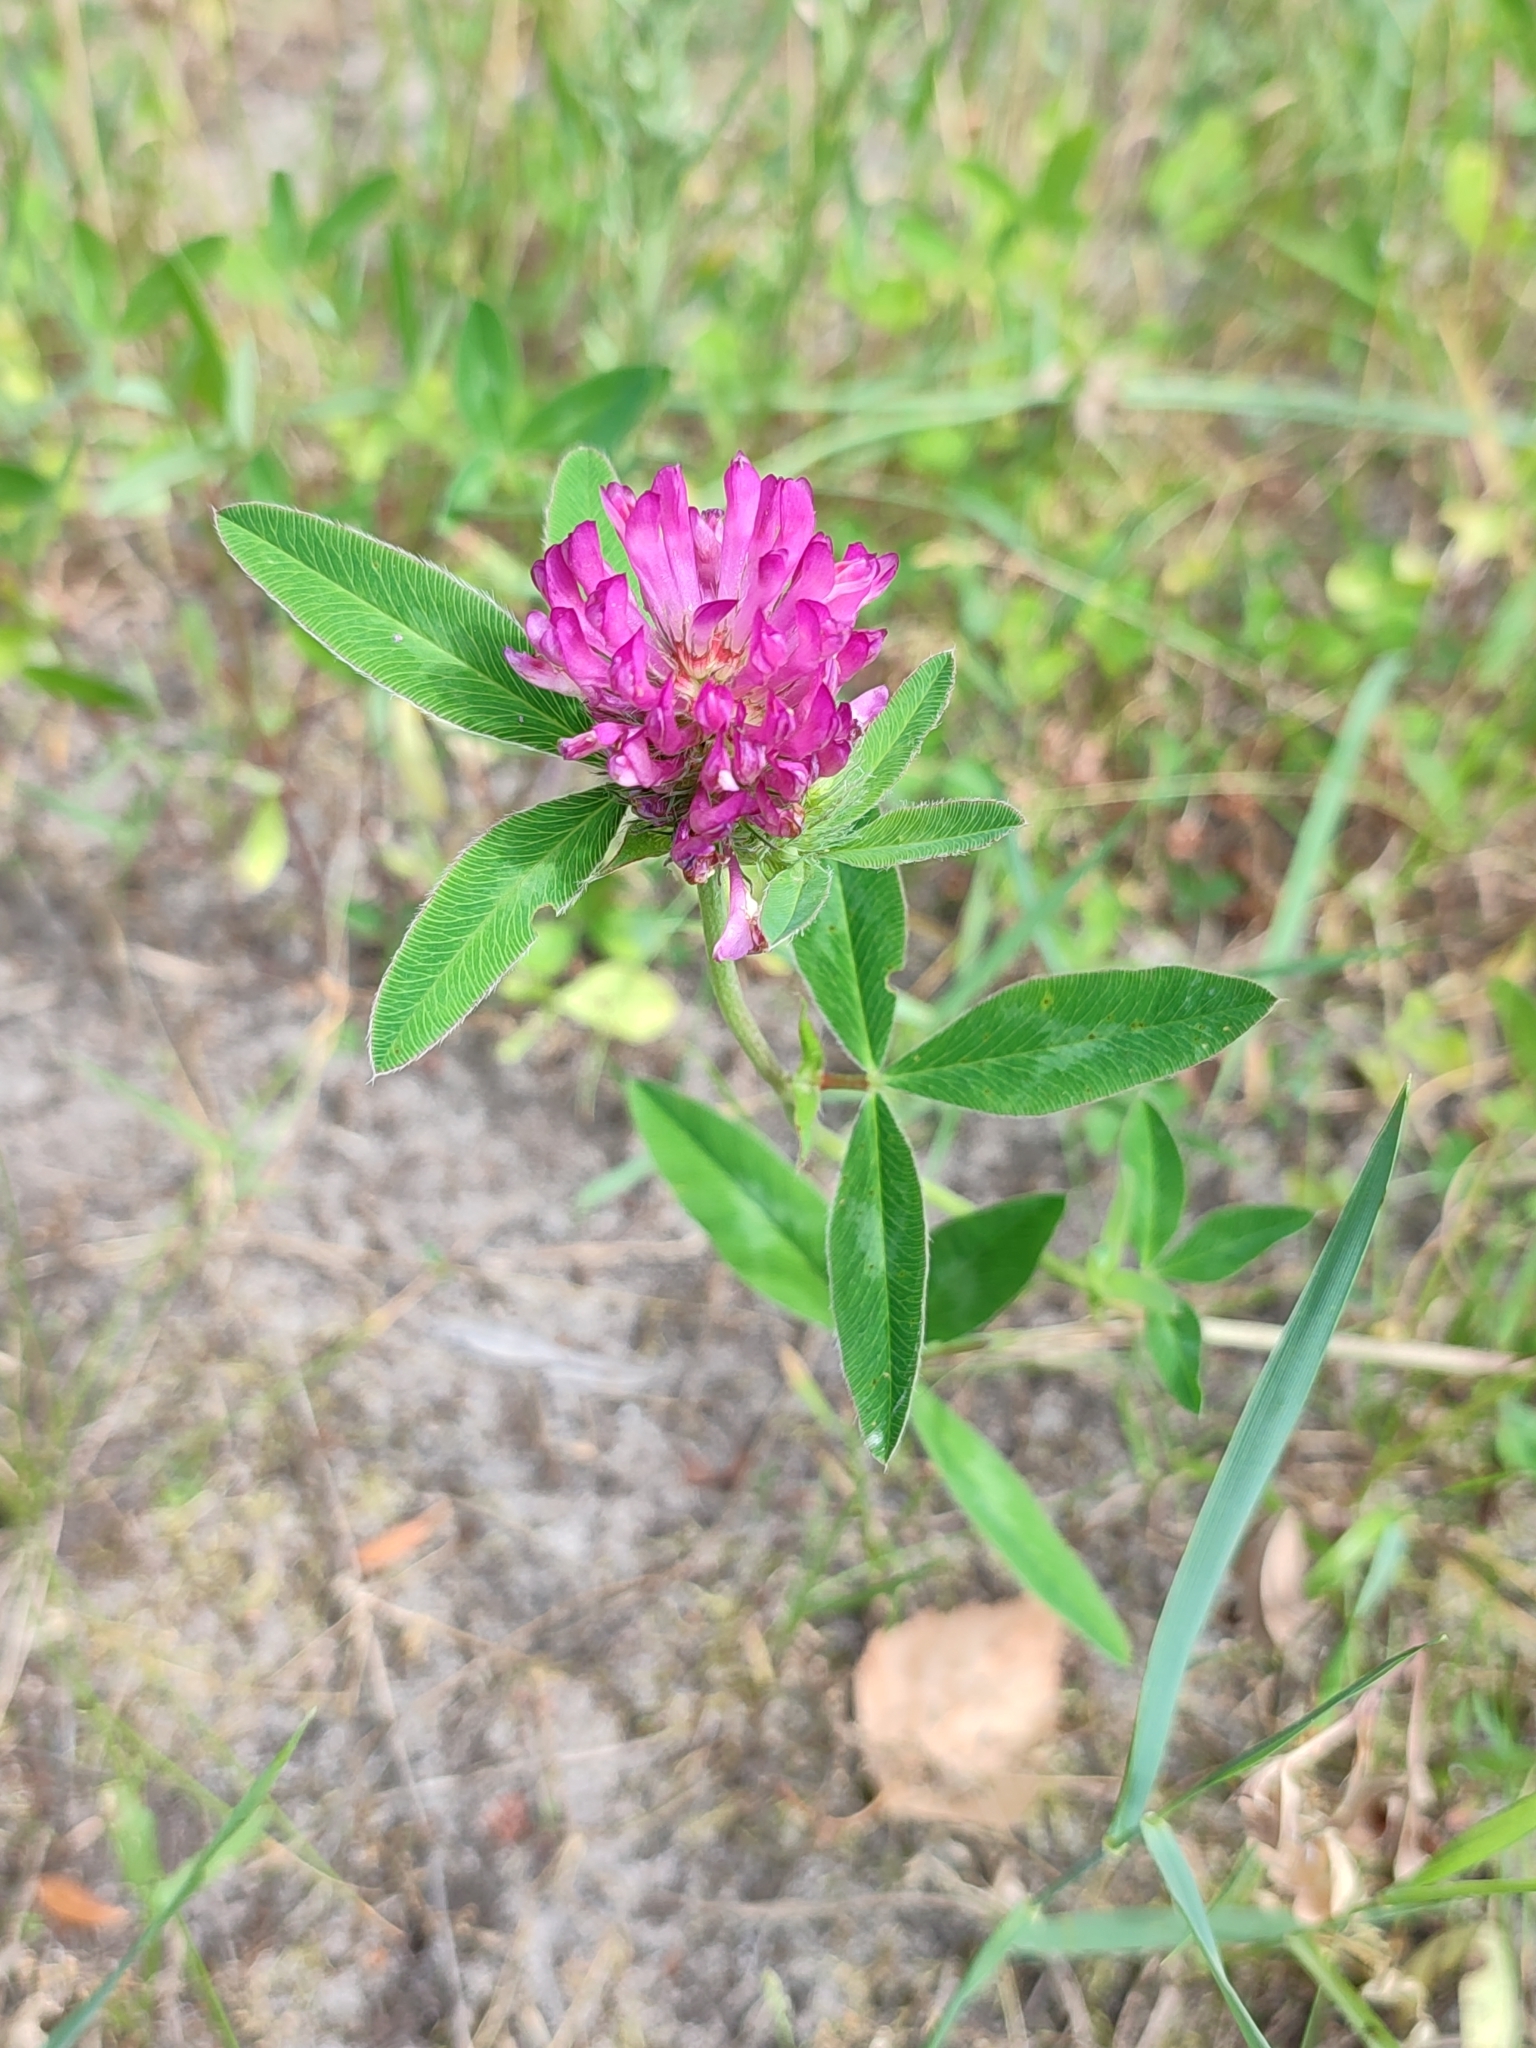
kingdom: Plantae
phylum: Tracheophyta
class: Magnoliopsida
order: Fabales
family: Fabaceae
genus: Trifolium
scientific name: Trifolium medium
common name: Zigzag clover
